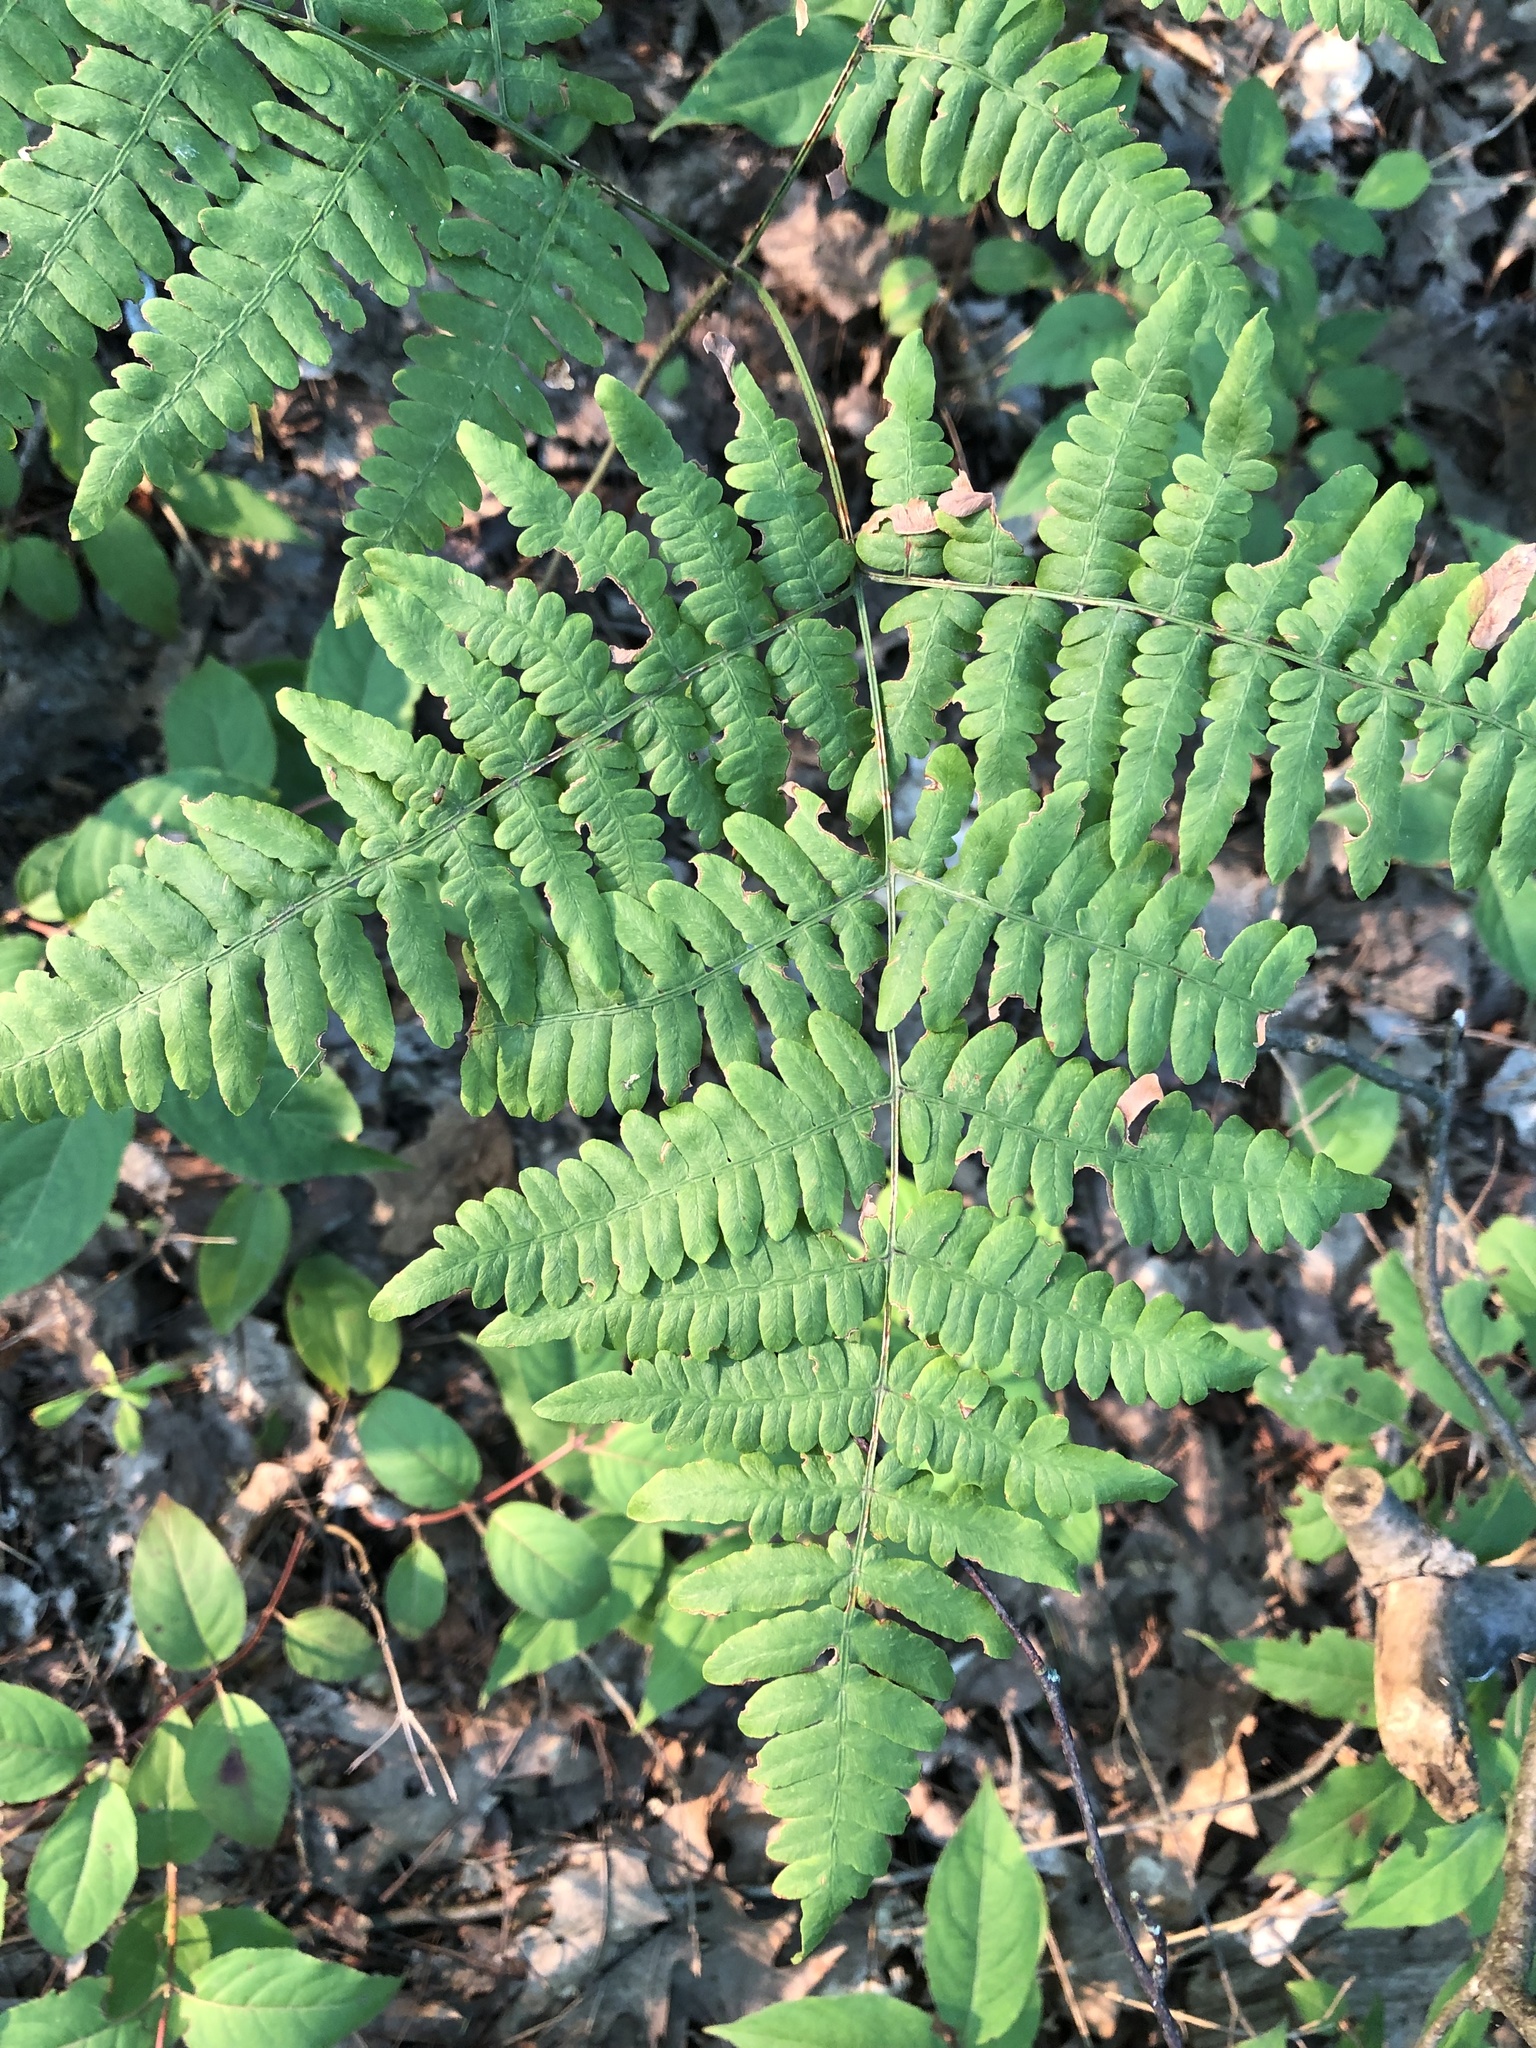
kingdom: Plantae
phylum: Tracheophyta
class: Polypodiopsida
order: Polypodiales
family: Dennstaedtiaceae
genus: Pteridium
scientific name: Pteridium aquilinum
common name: Bracken
